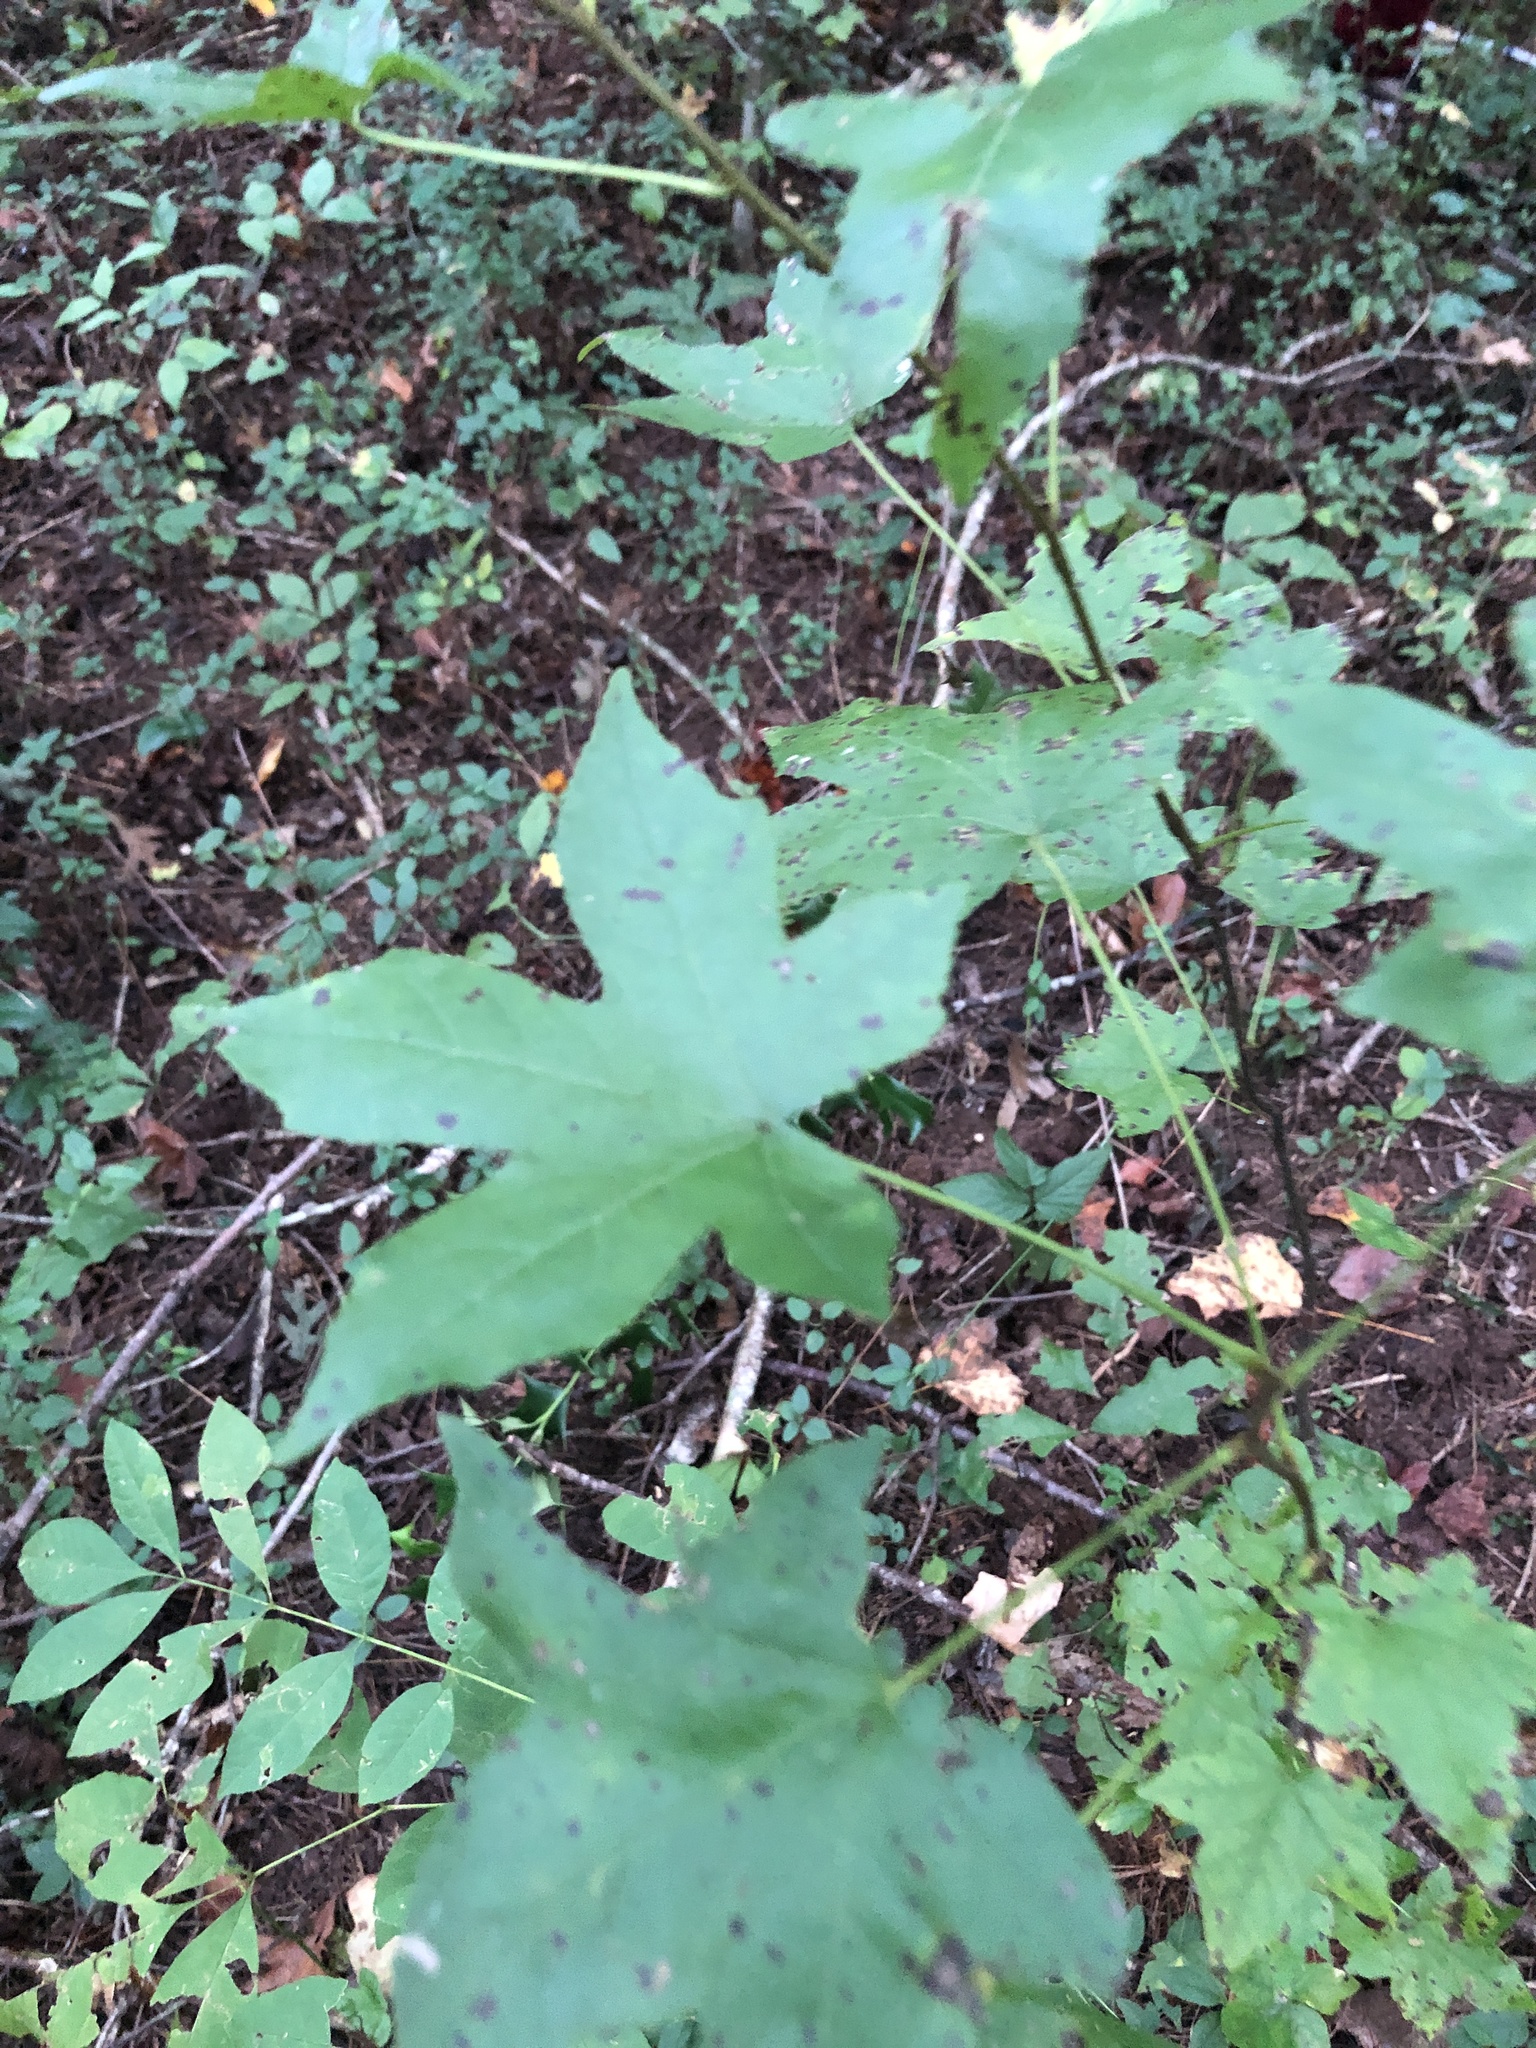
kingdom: Plantae
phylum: Tracheophyta
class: Magnoliopsida
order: Saxifragales
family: Altingiaceae
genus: Liquidambar
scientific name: Liquidambar styraciflua
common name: Sweet gum
